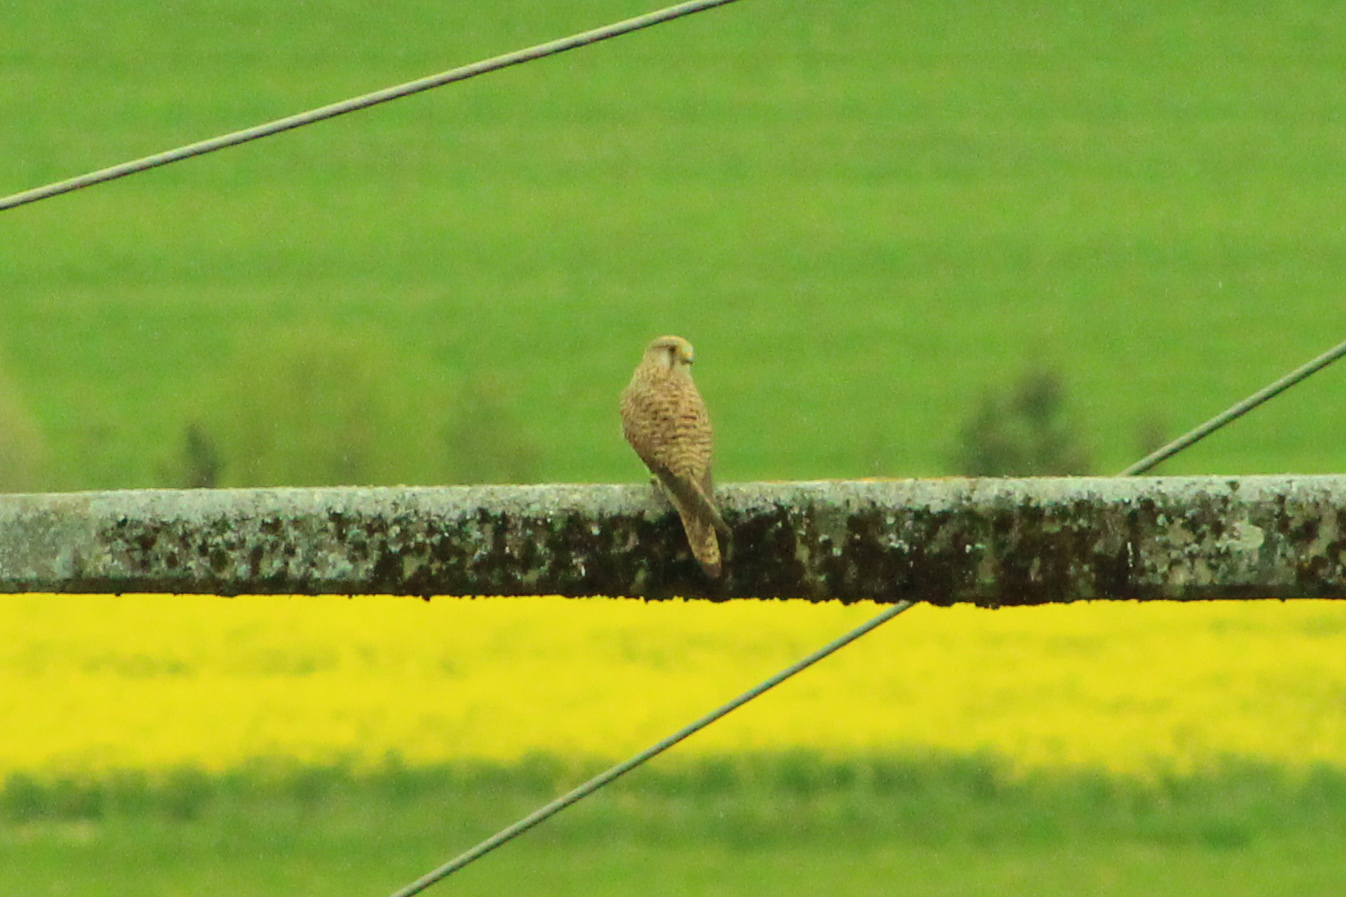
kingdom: Animalia
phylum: Chordata
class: Aves
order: Falconiformes
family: Falconidae
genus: Falco
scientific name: Falco tinnunculus
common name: Common kestrel
